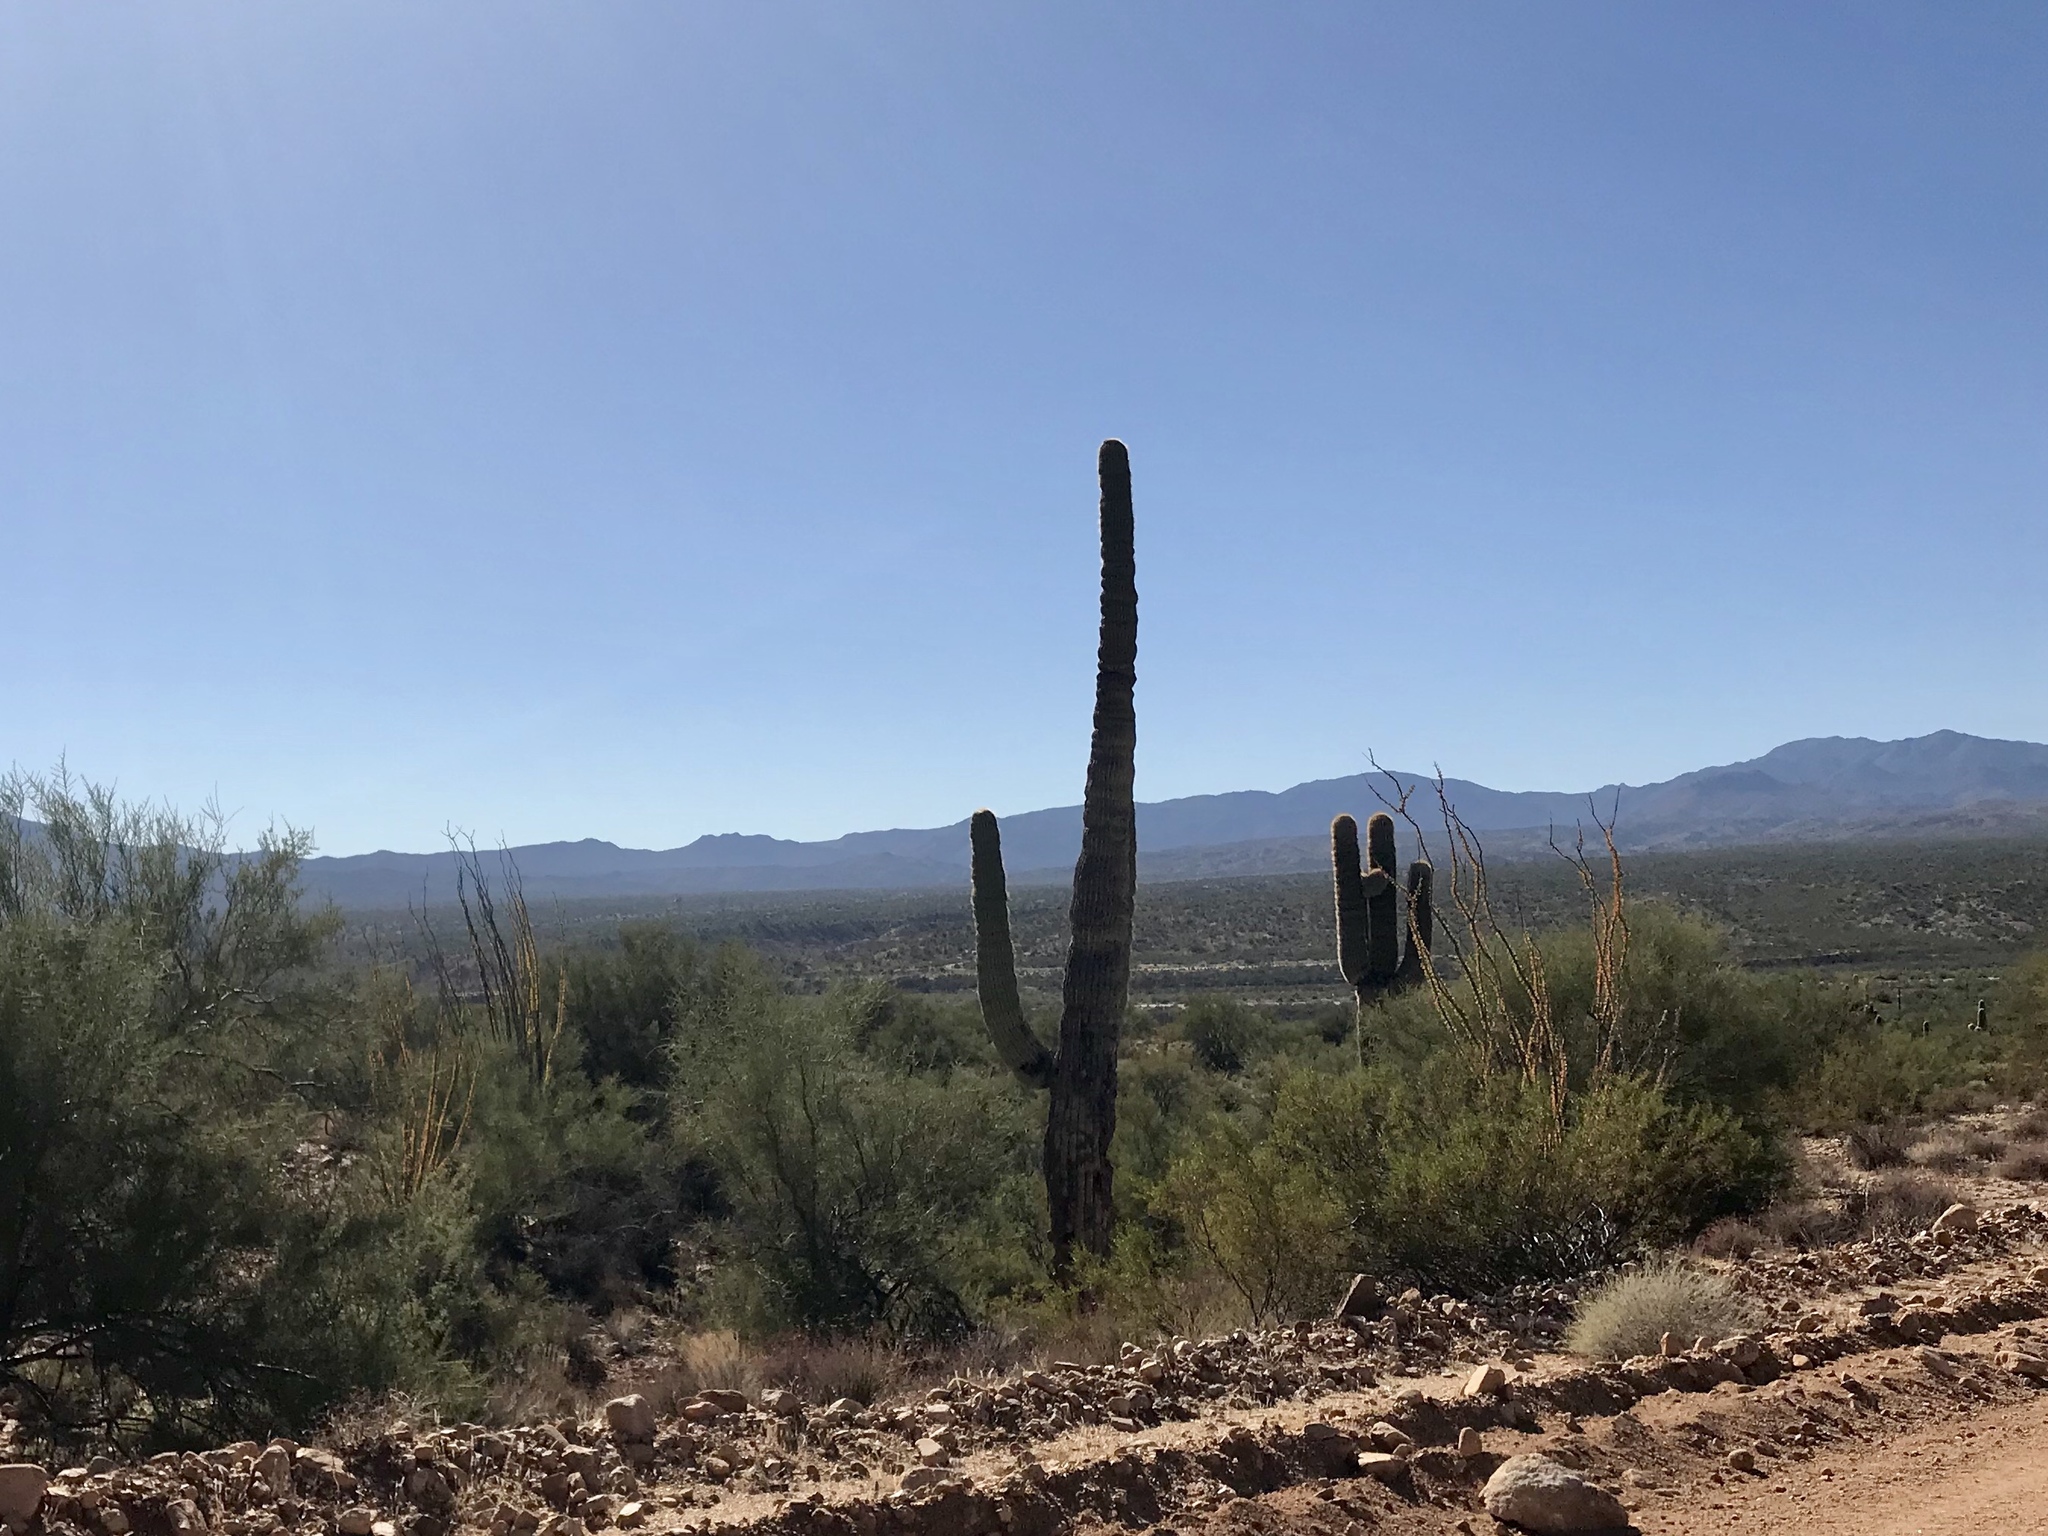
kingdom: Plantae
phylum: Tracheophyta
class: Magnoliopsida
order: Caryophyllales
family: Cactaceae
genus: Carnegiea
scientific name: Carnegiea gigantea
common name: Saguaro
